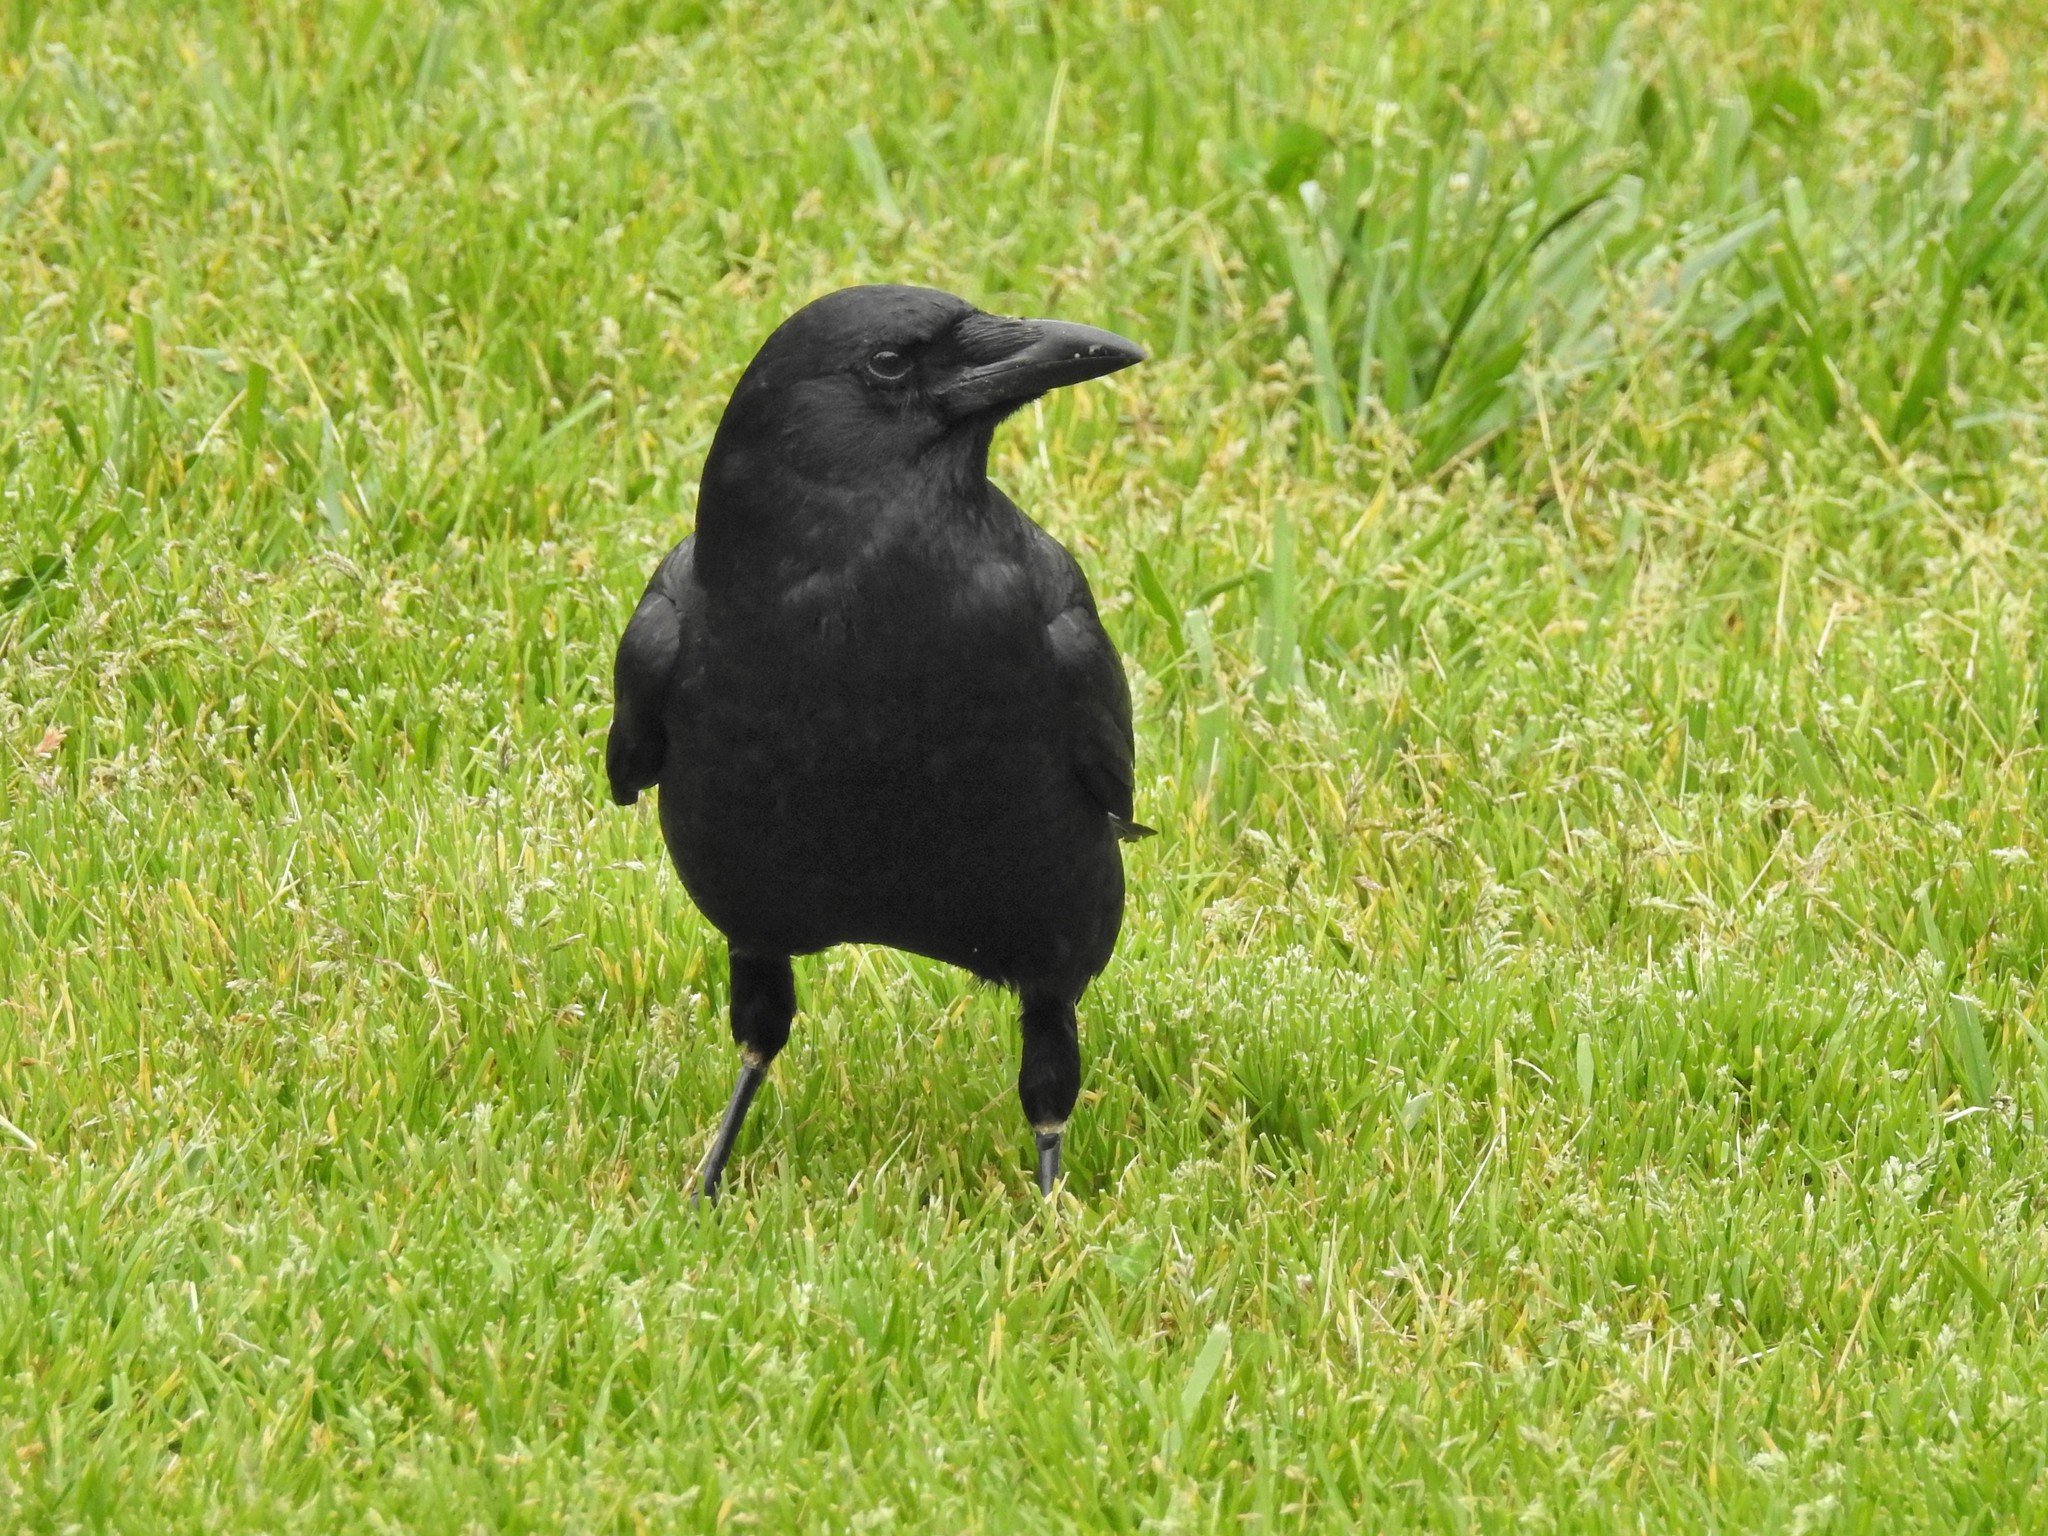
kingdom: Animalia
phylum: Chordata
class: Aves
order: Passeriformes
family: Corvidae
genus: Corvus
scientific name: Corvus brachyrhynchos
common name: American crow
